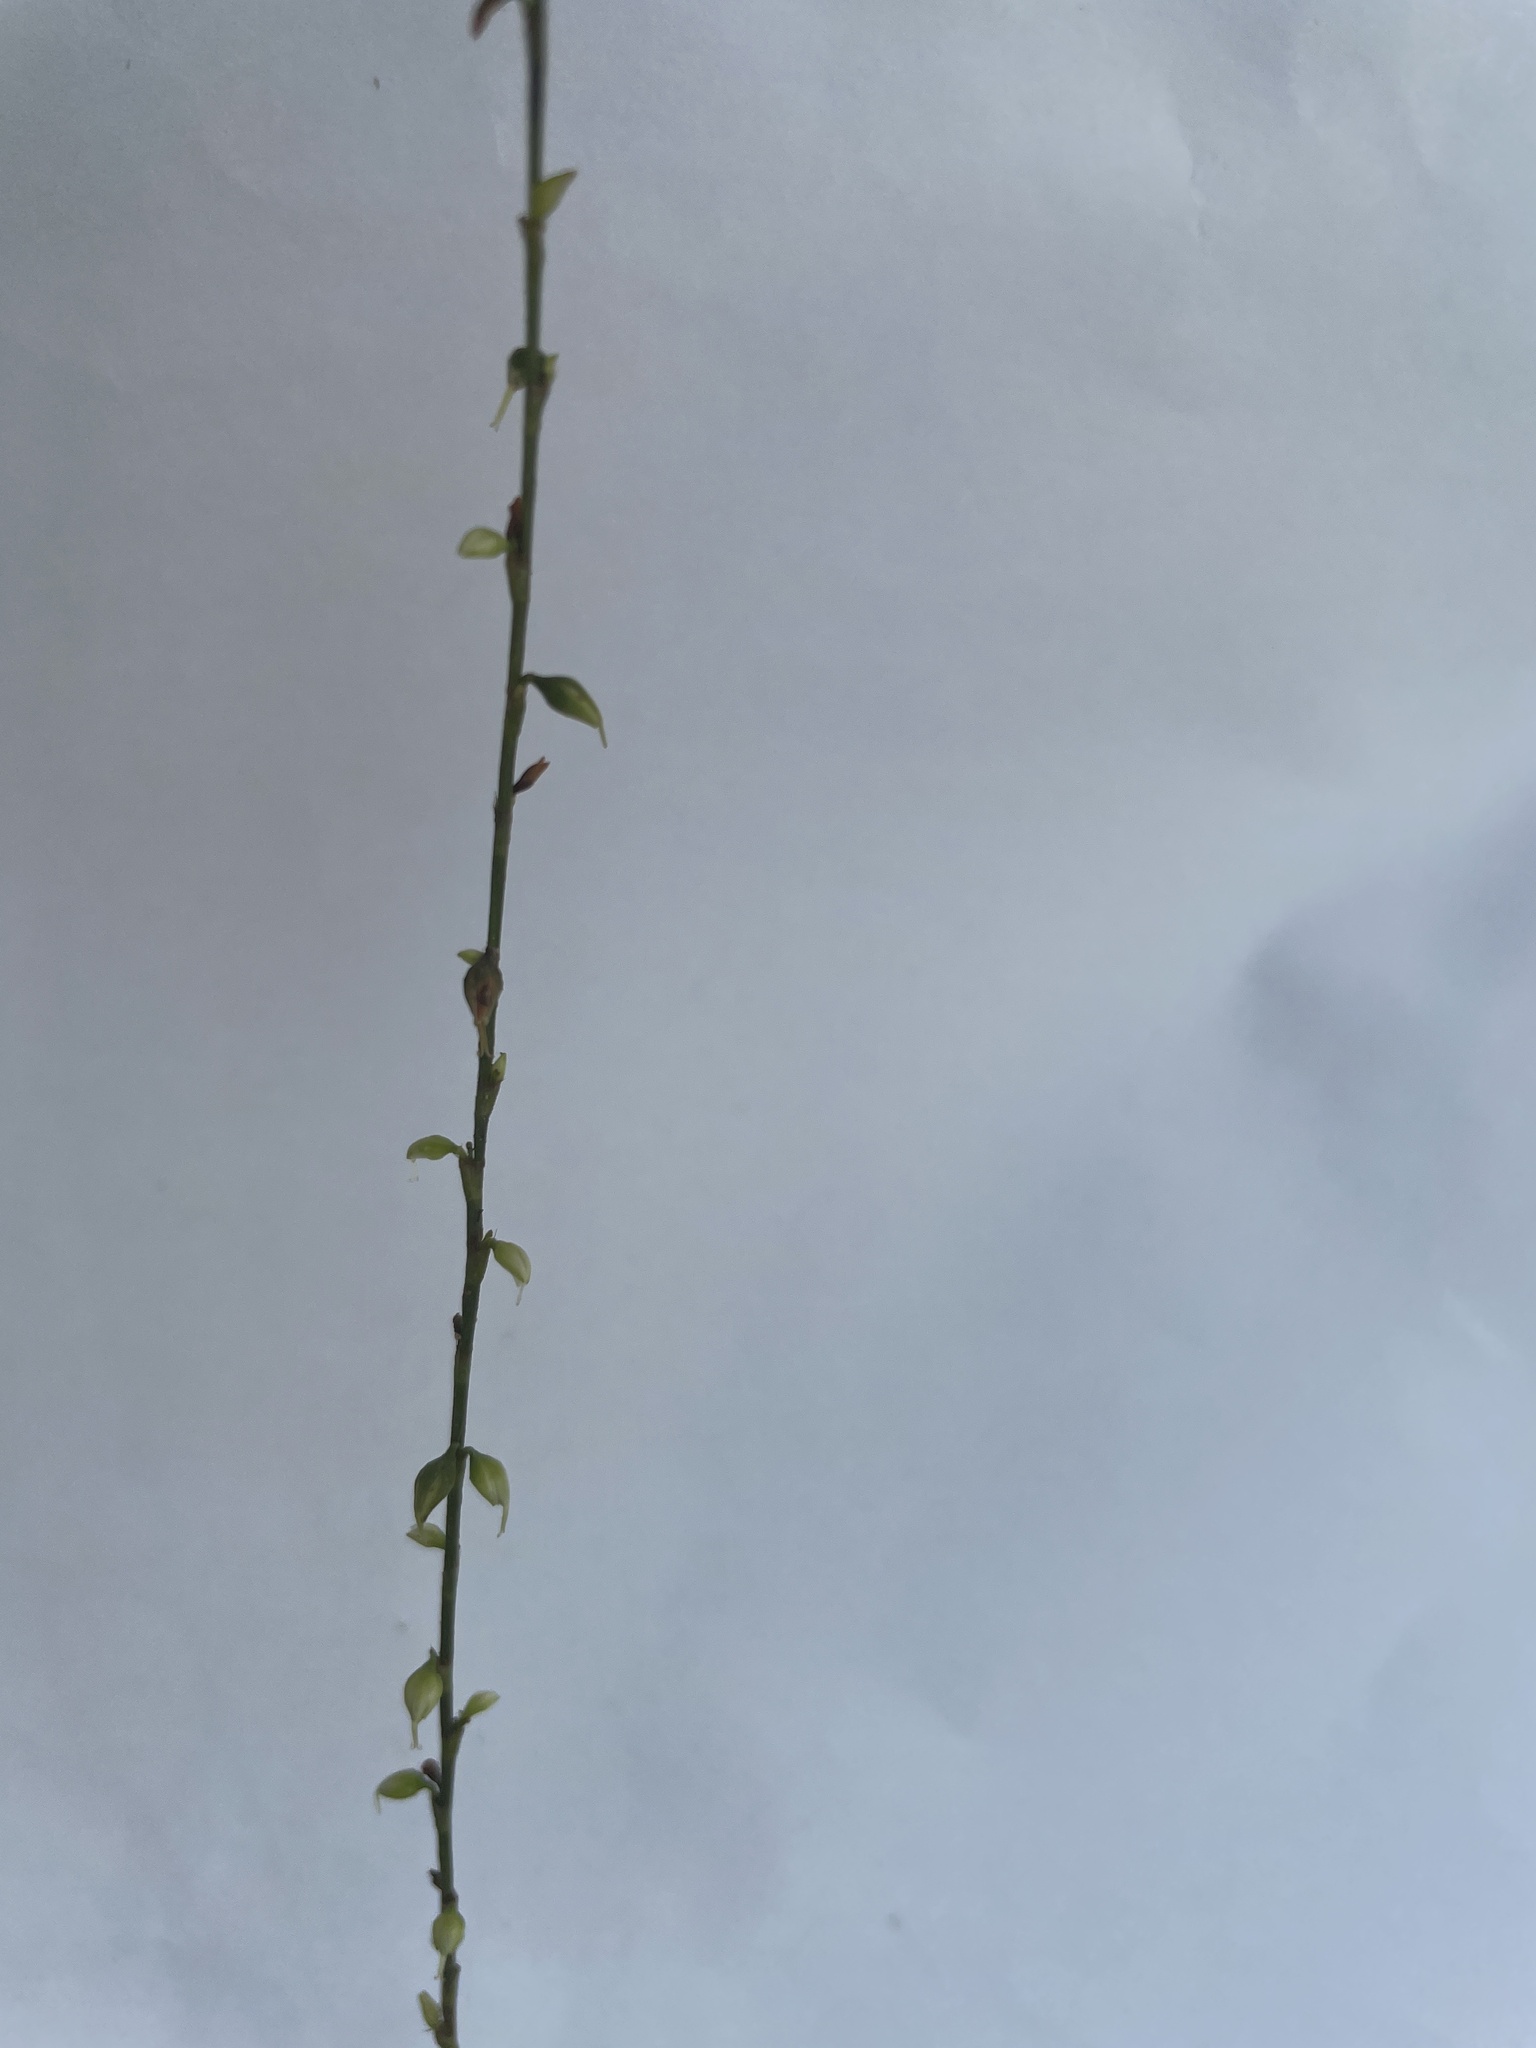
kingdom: Plantae
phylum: Tracheophyta
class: Magnoliopsida
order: Caryophyllales
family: Polygonaceae
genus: Persicaria
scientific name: Persicaria virginiana
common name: Jumpseed
